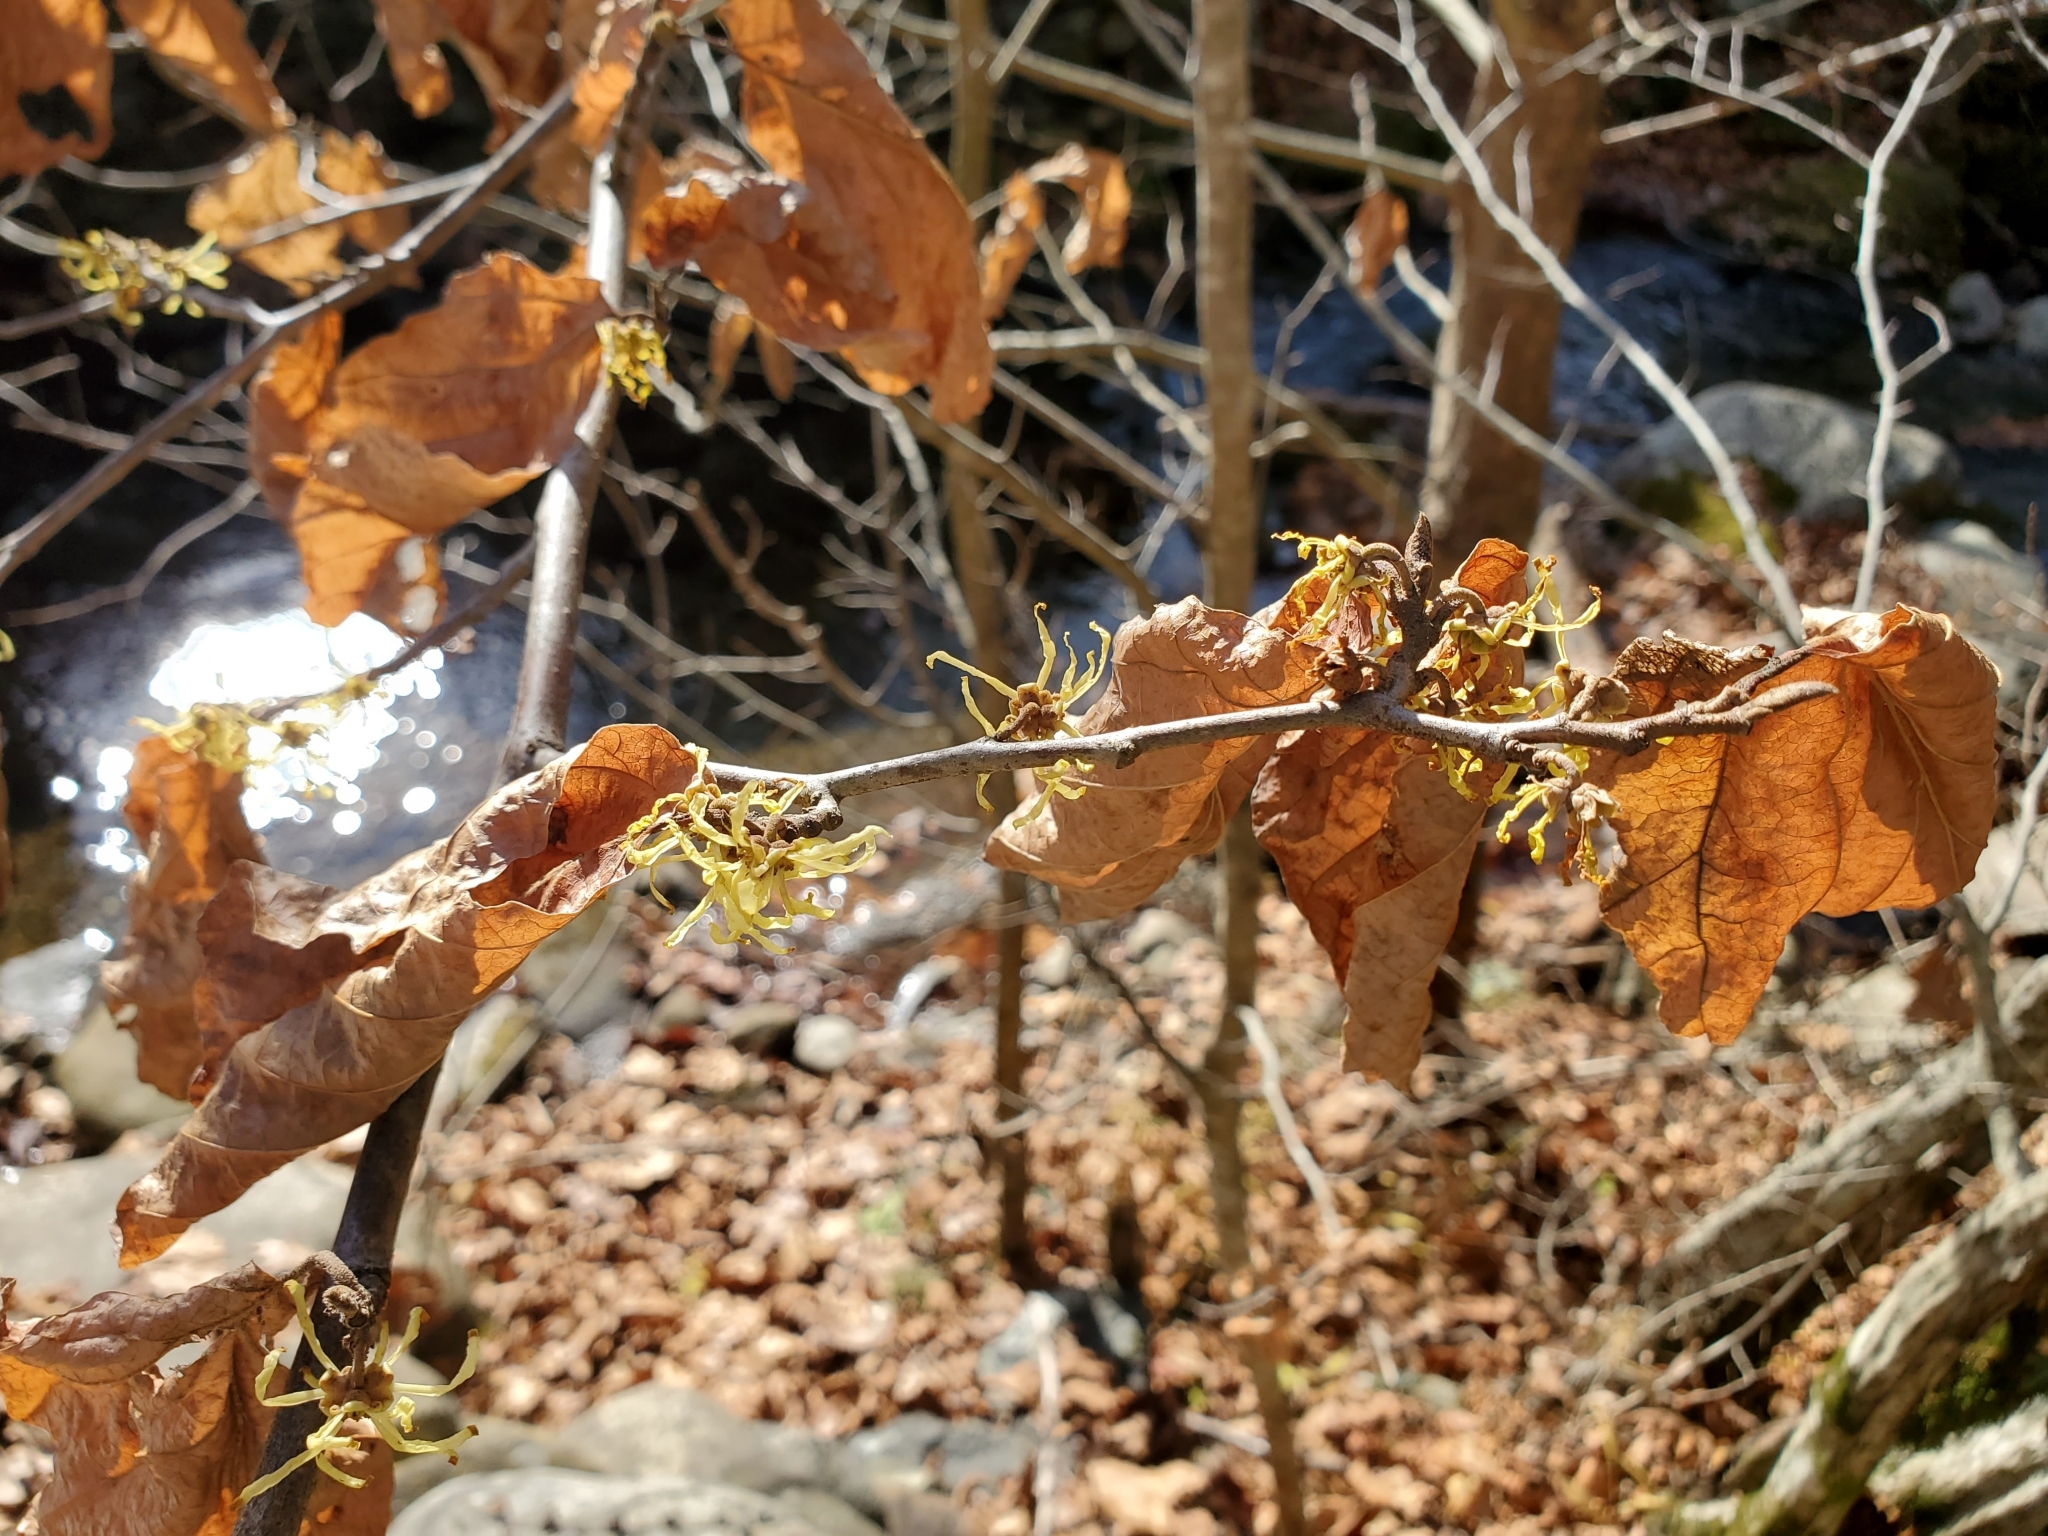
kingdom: Plantae
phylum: Tracheophyta
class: Magnoliopsida
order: Saxifragales
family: Hamamelidaceae
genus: Hamamelis
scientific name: Hamamelis virginiana
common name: Witch-hazel
